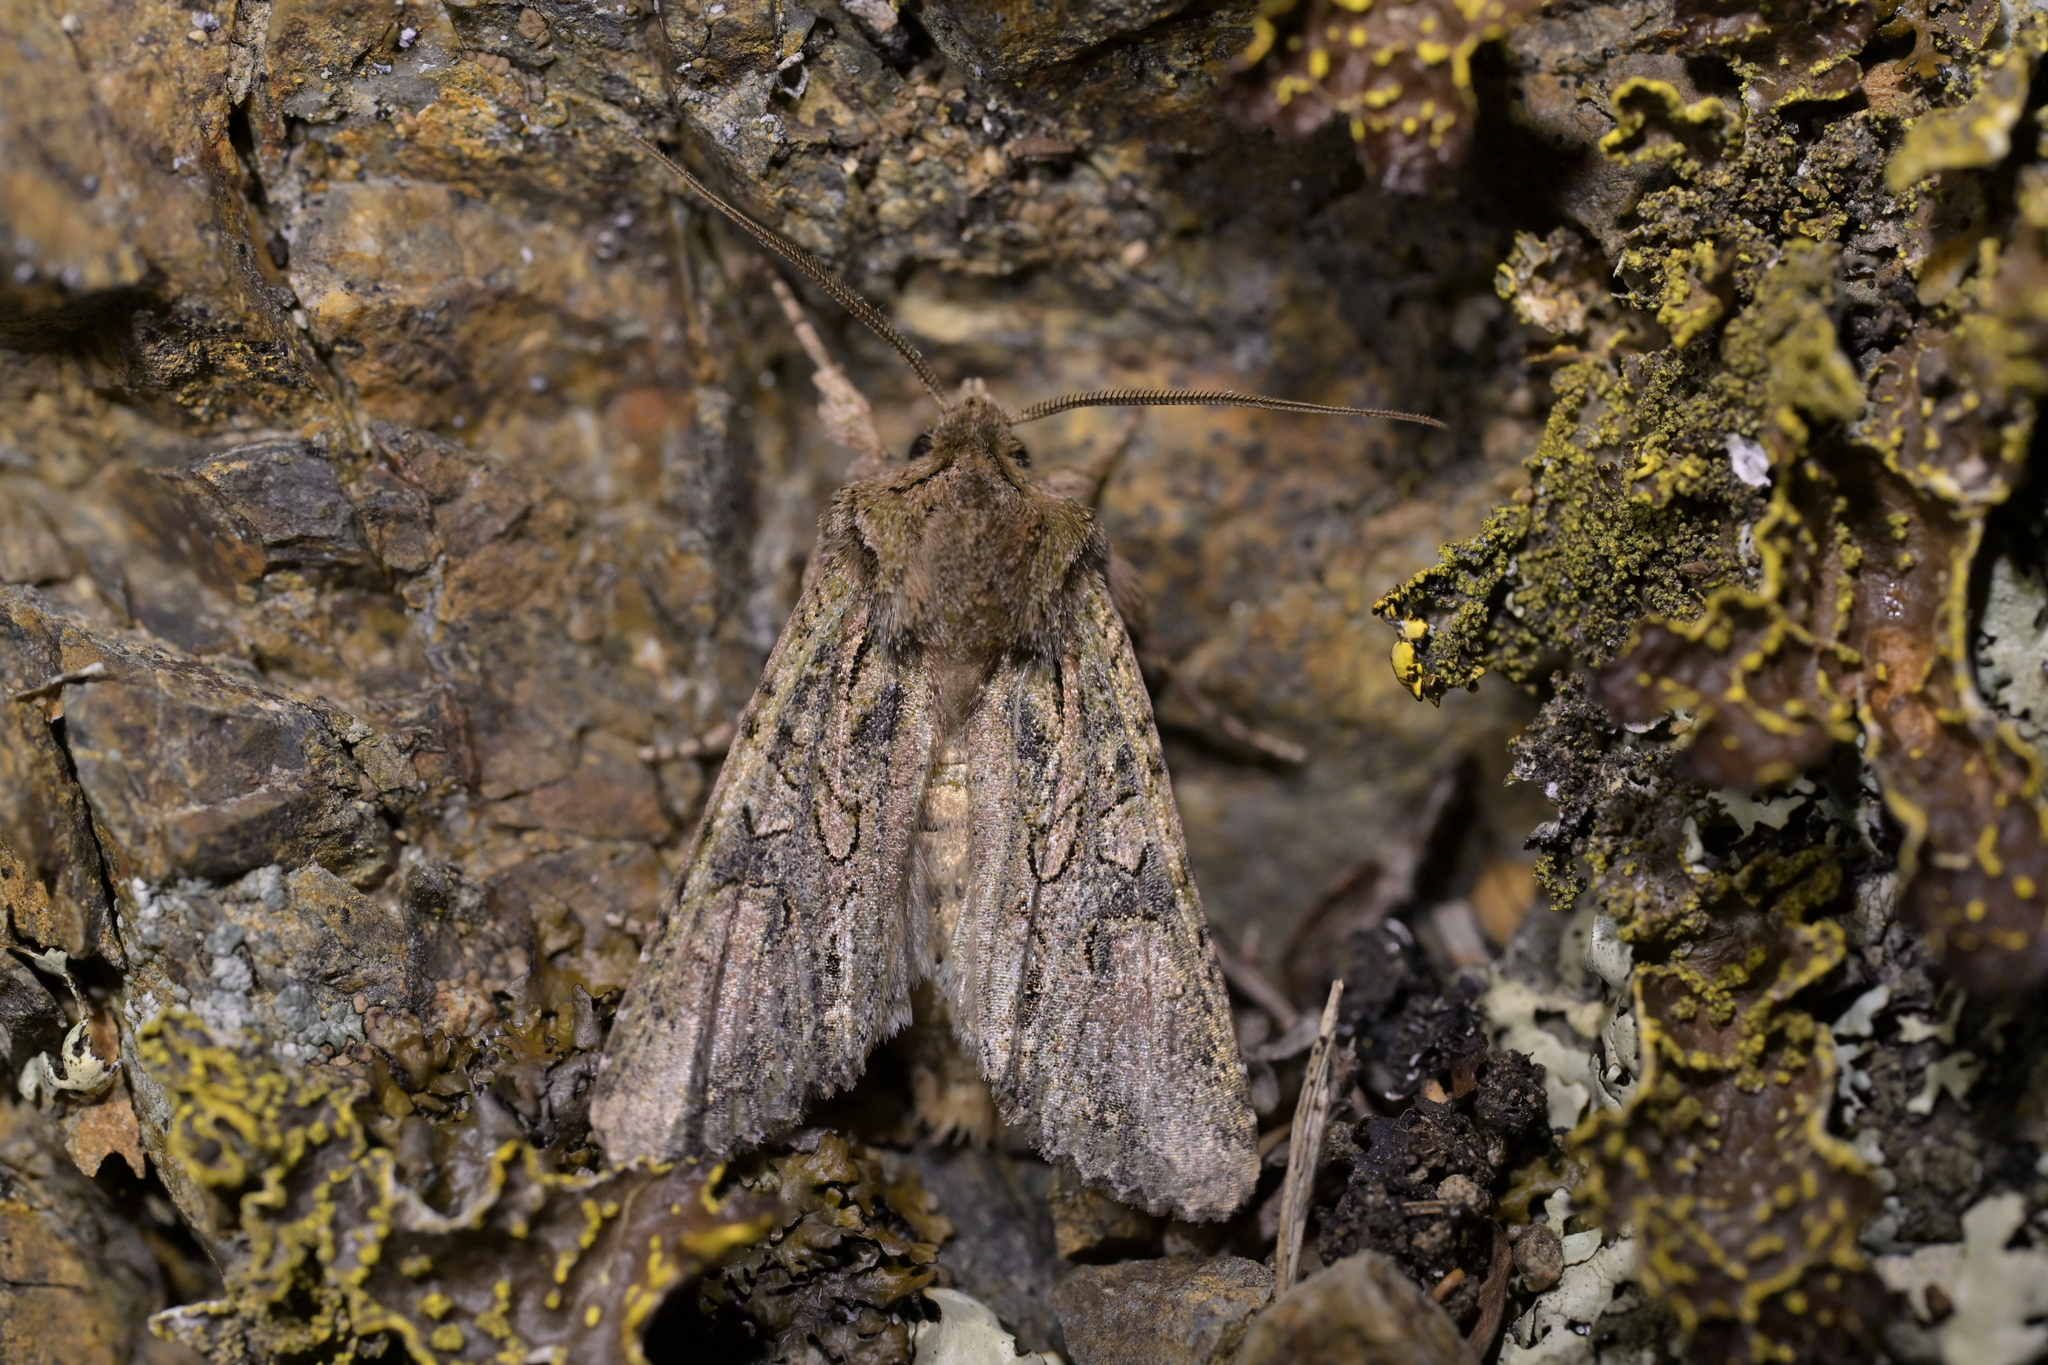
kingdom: Animalia
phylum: Arthropoda
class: Insecta
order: Lepidoptera
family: Noctuidae
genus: Ichneutica
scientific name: Ichneutica mutans
